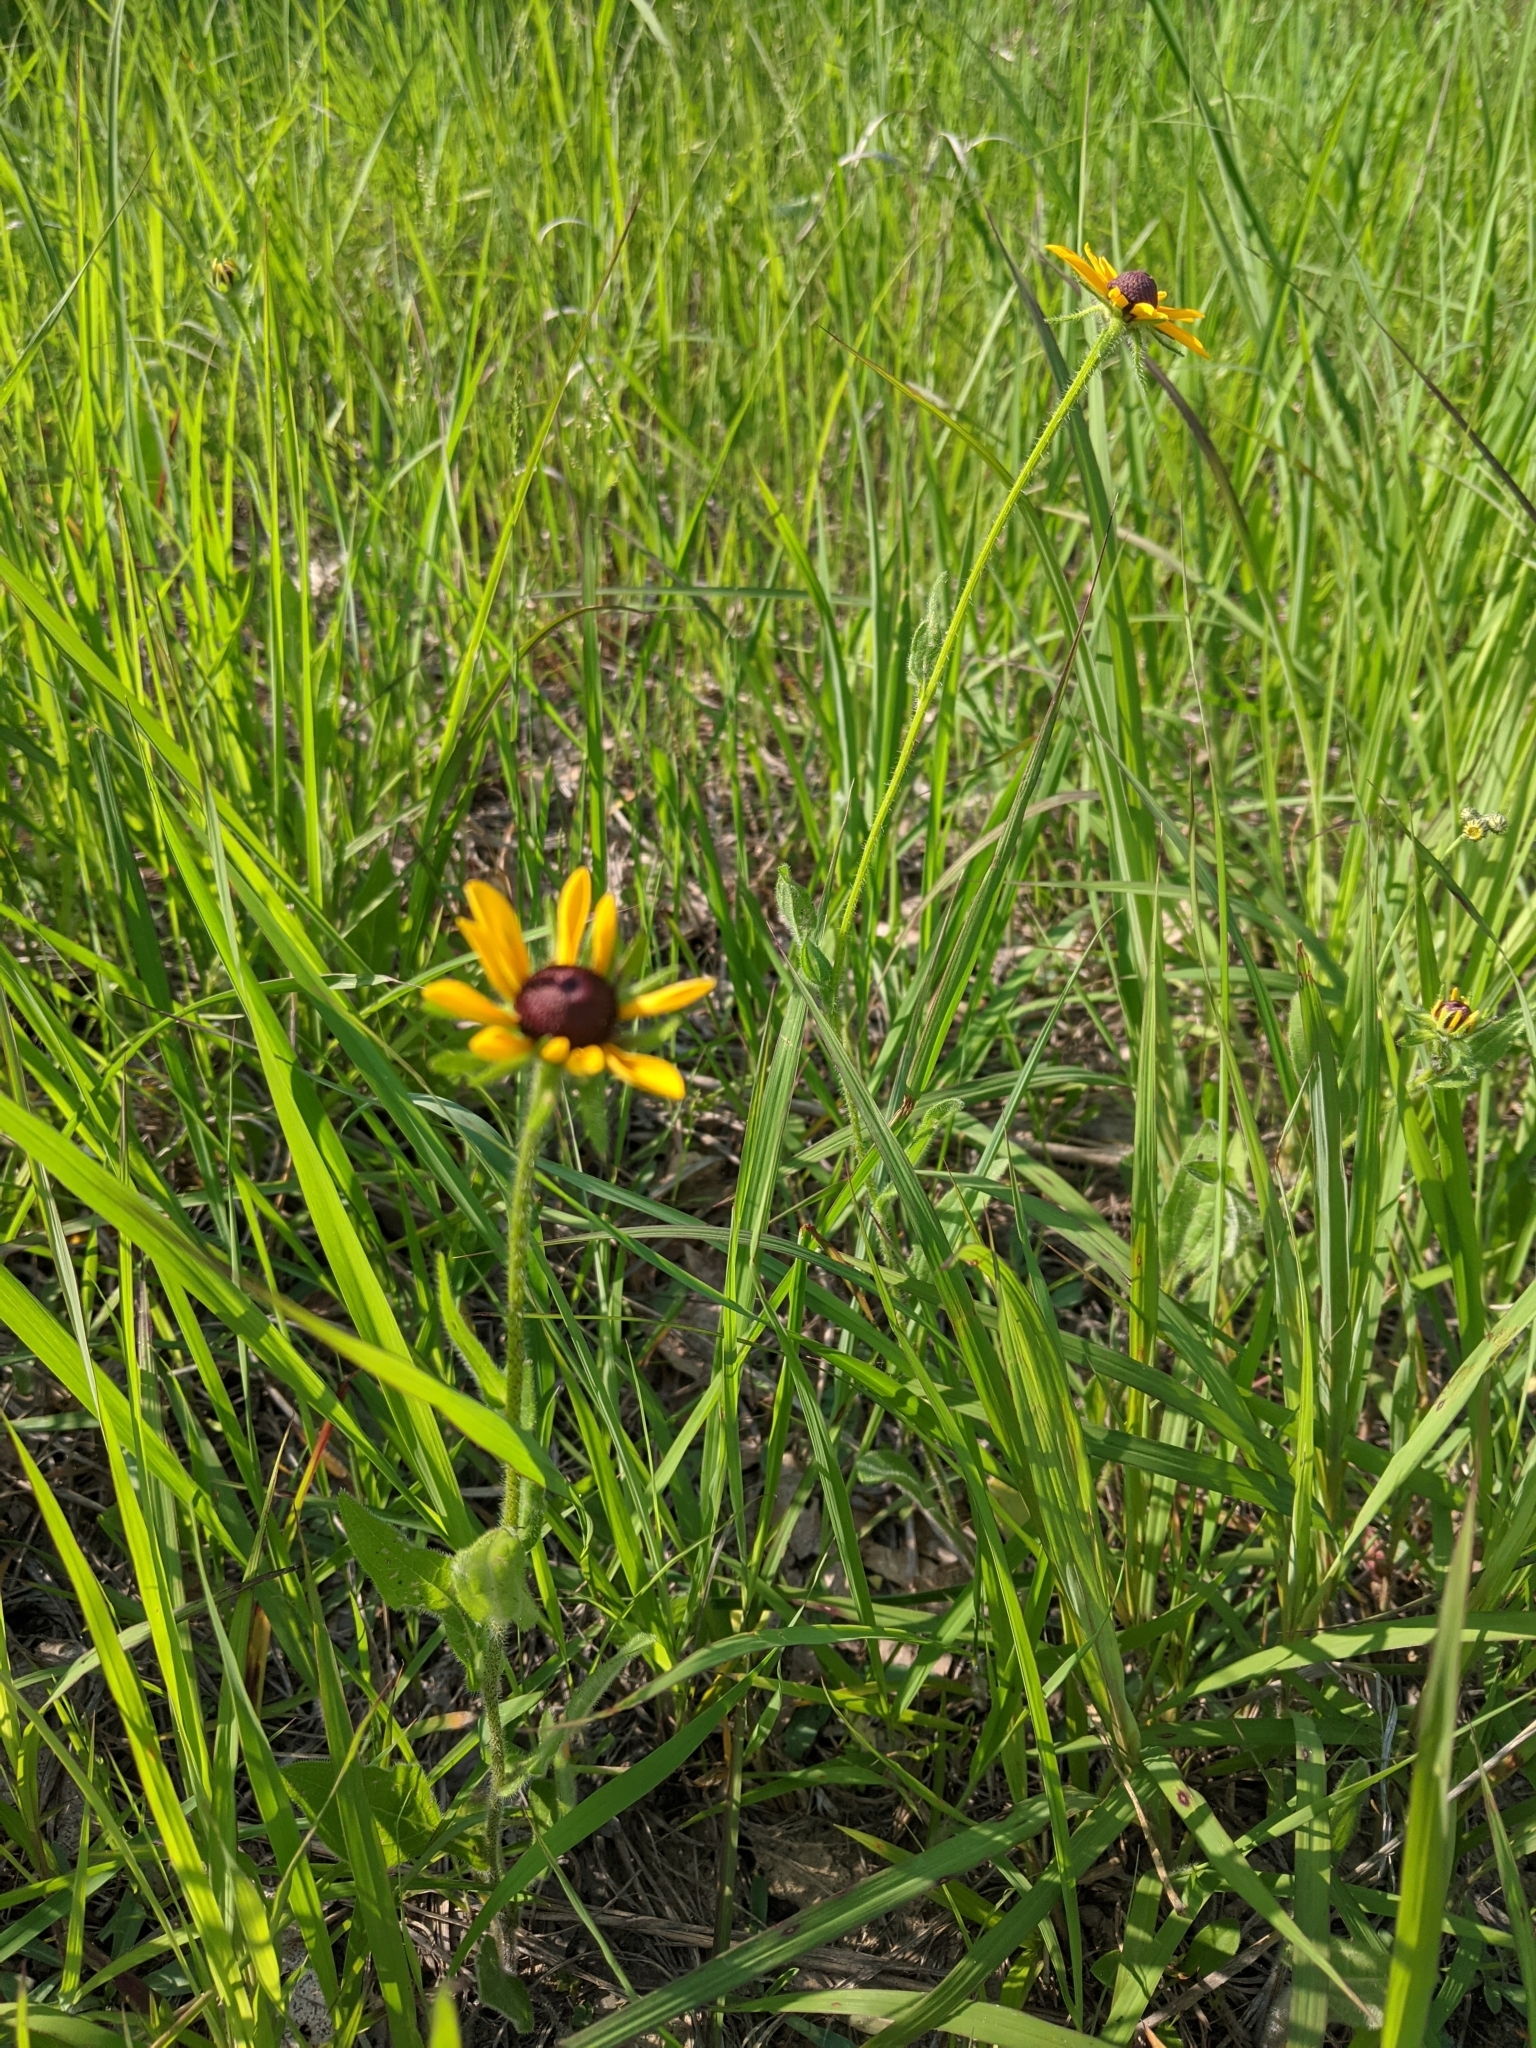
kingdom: Plantae
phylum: Tracheophyta
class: Magnoliopsida
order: Asterales
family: Asteraceae
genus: Rudbeckia
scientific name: Rudbeckia hirta
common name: Black-eyed-susan
